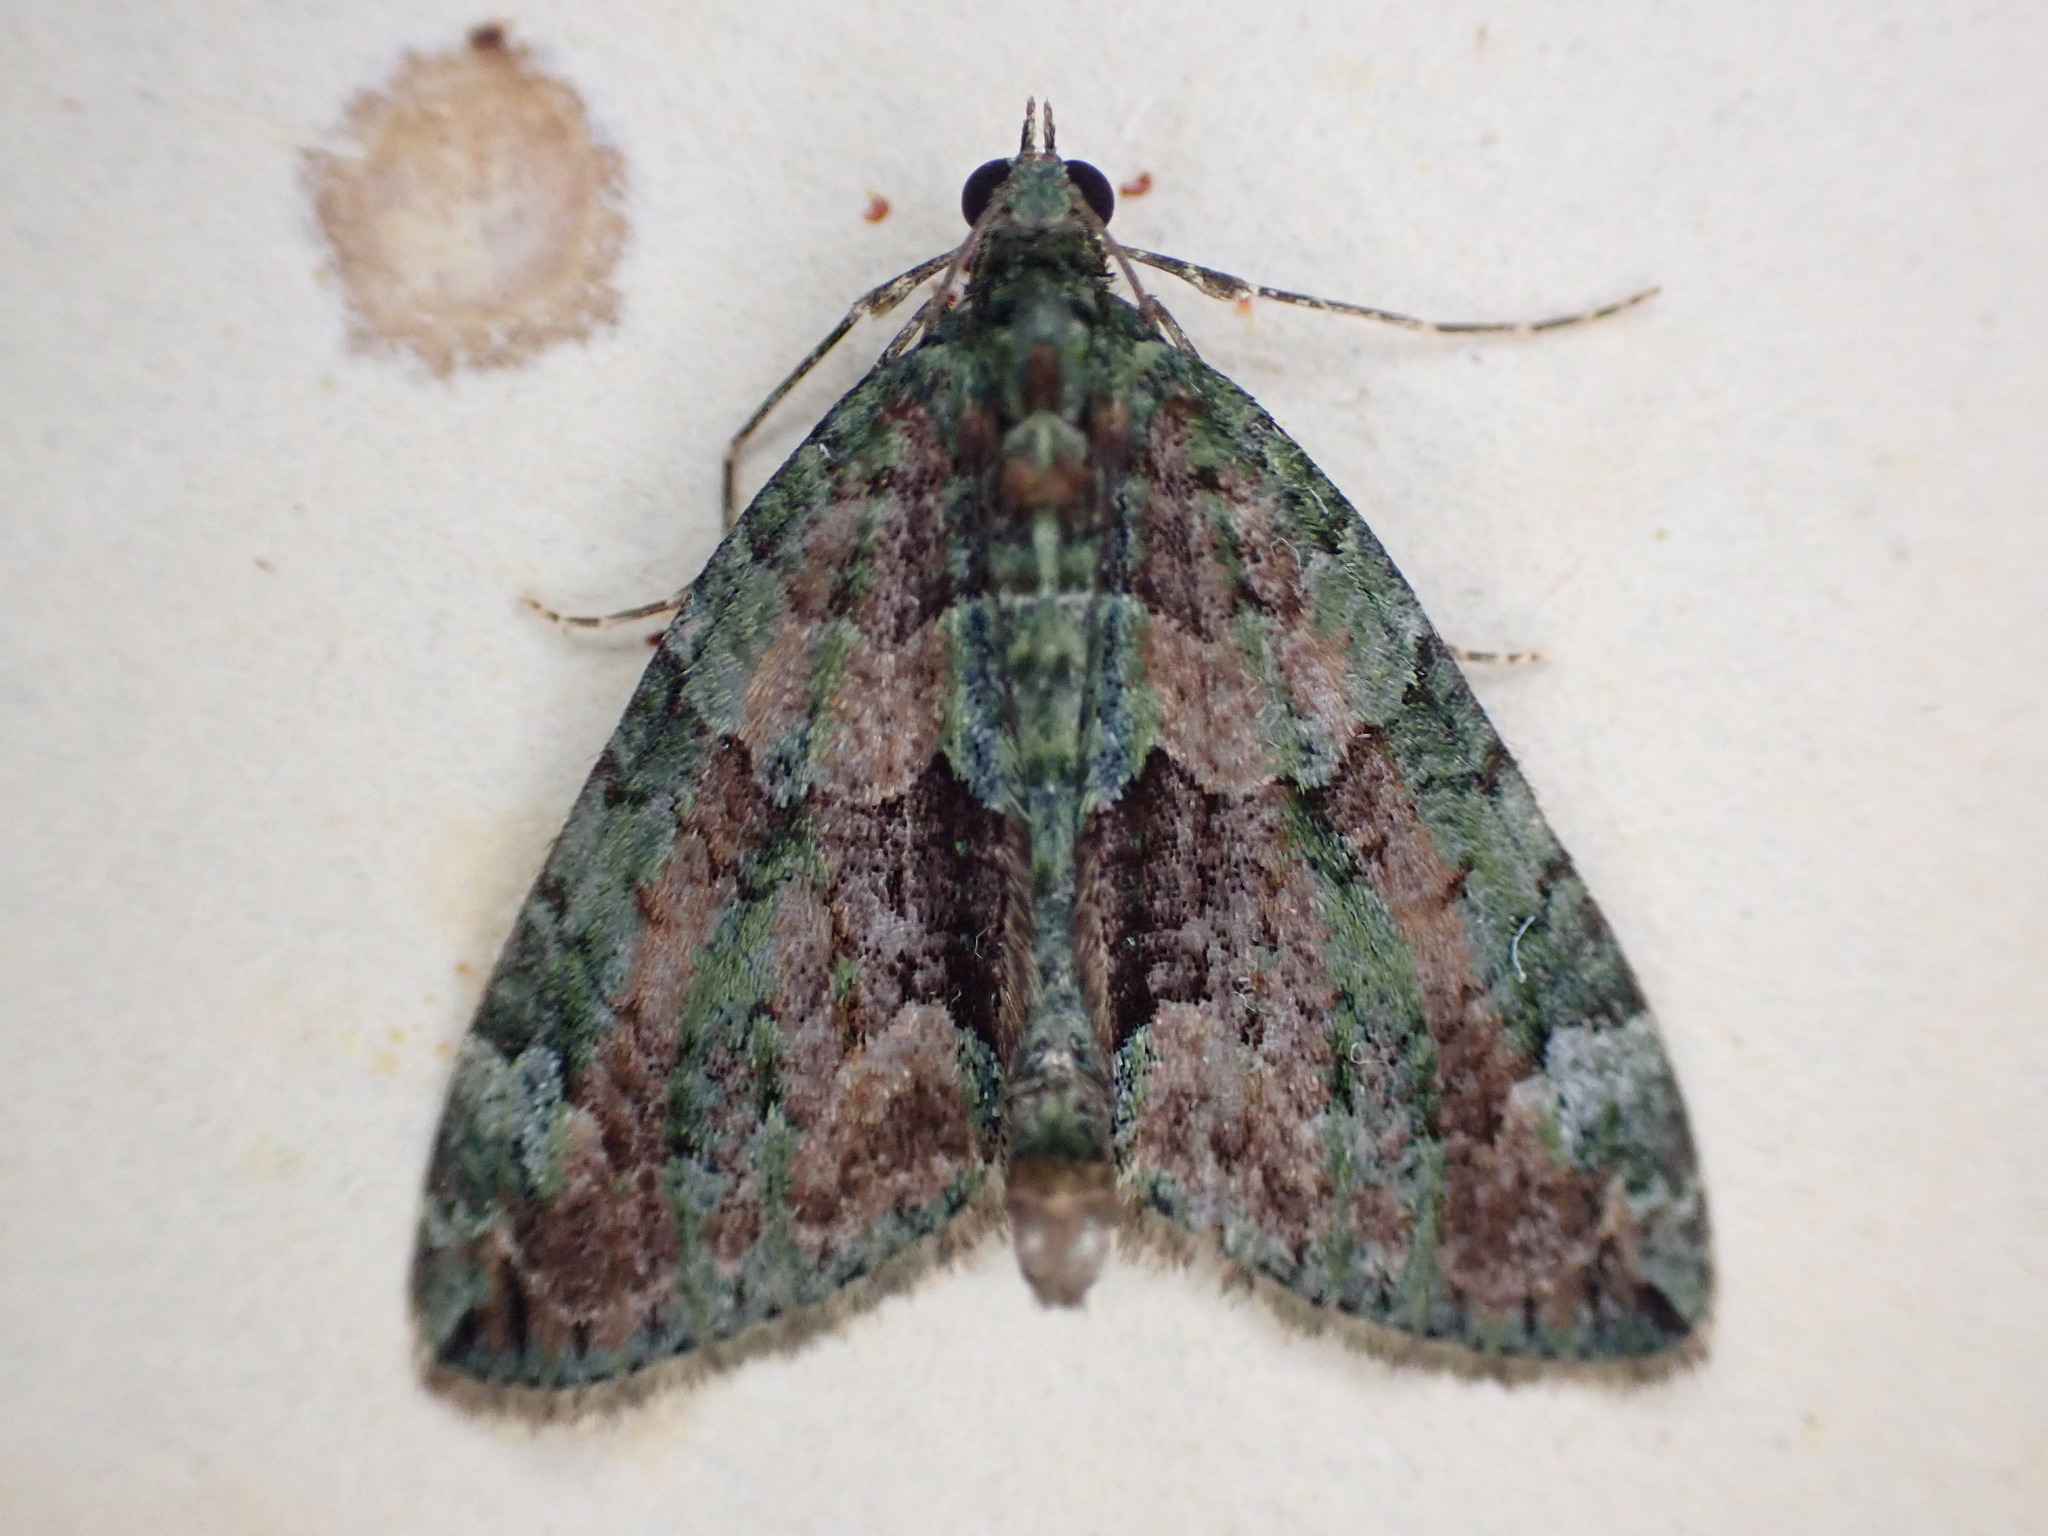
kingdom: Animalia
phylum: Arthropoda
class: Insecta
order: Lepidoptera
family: Geometridae
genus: Chloroclysta
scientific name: Chloroclysta siterata
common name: Red-green carpet
